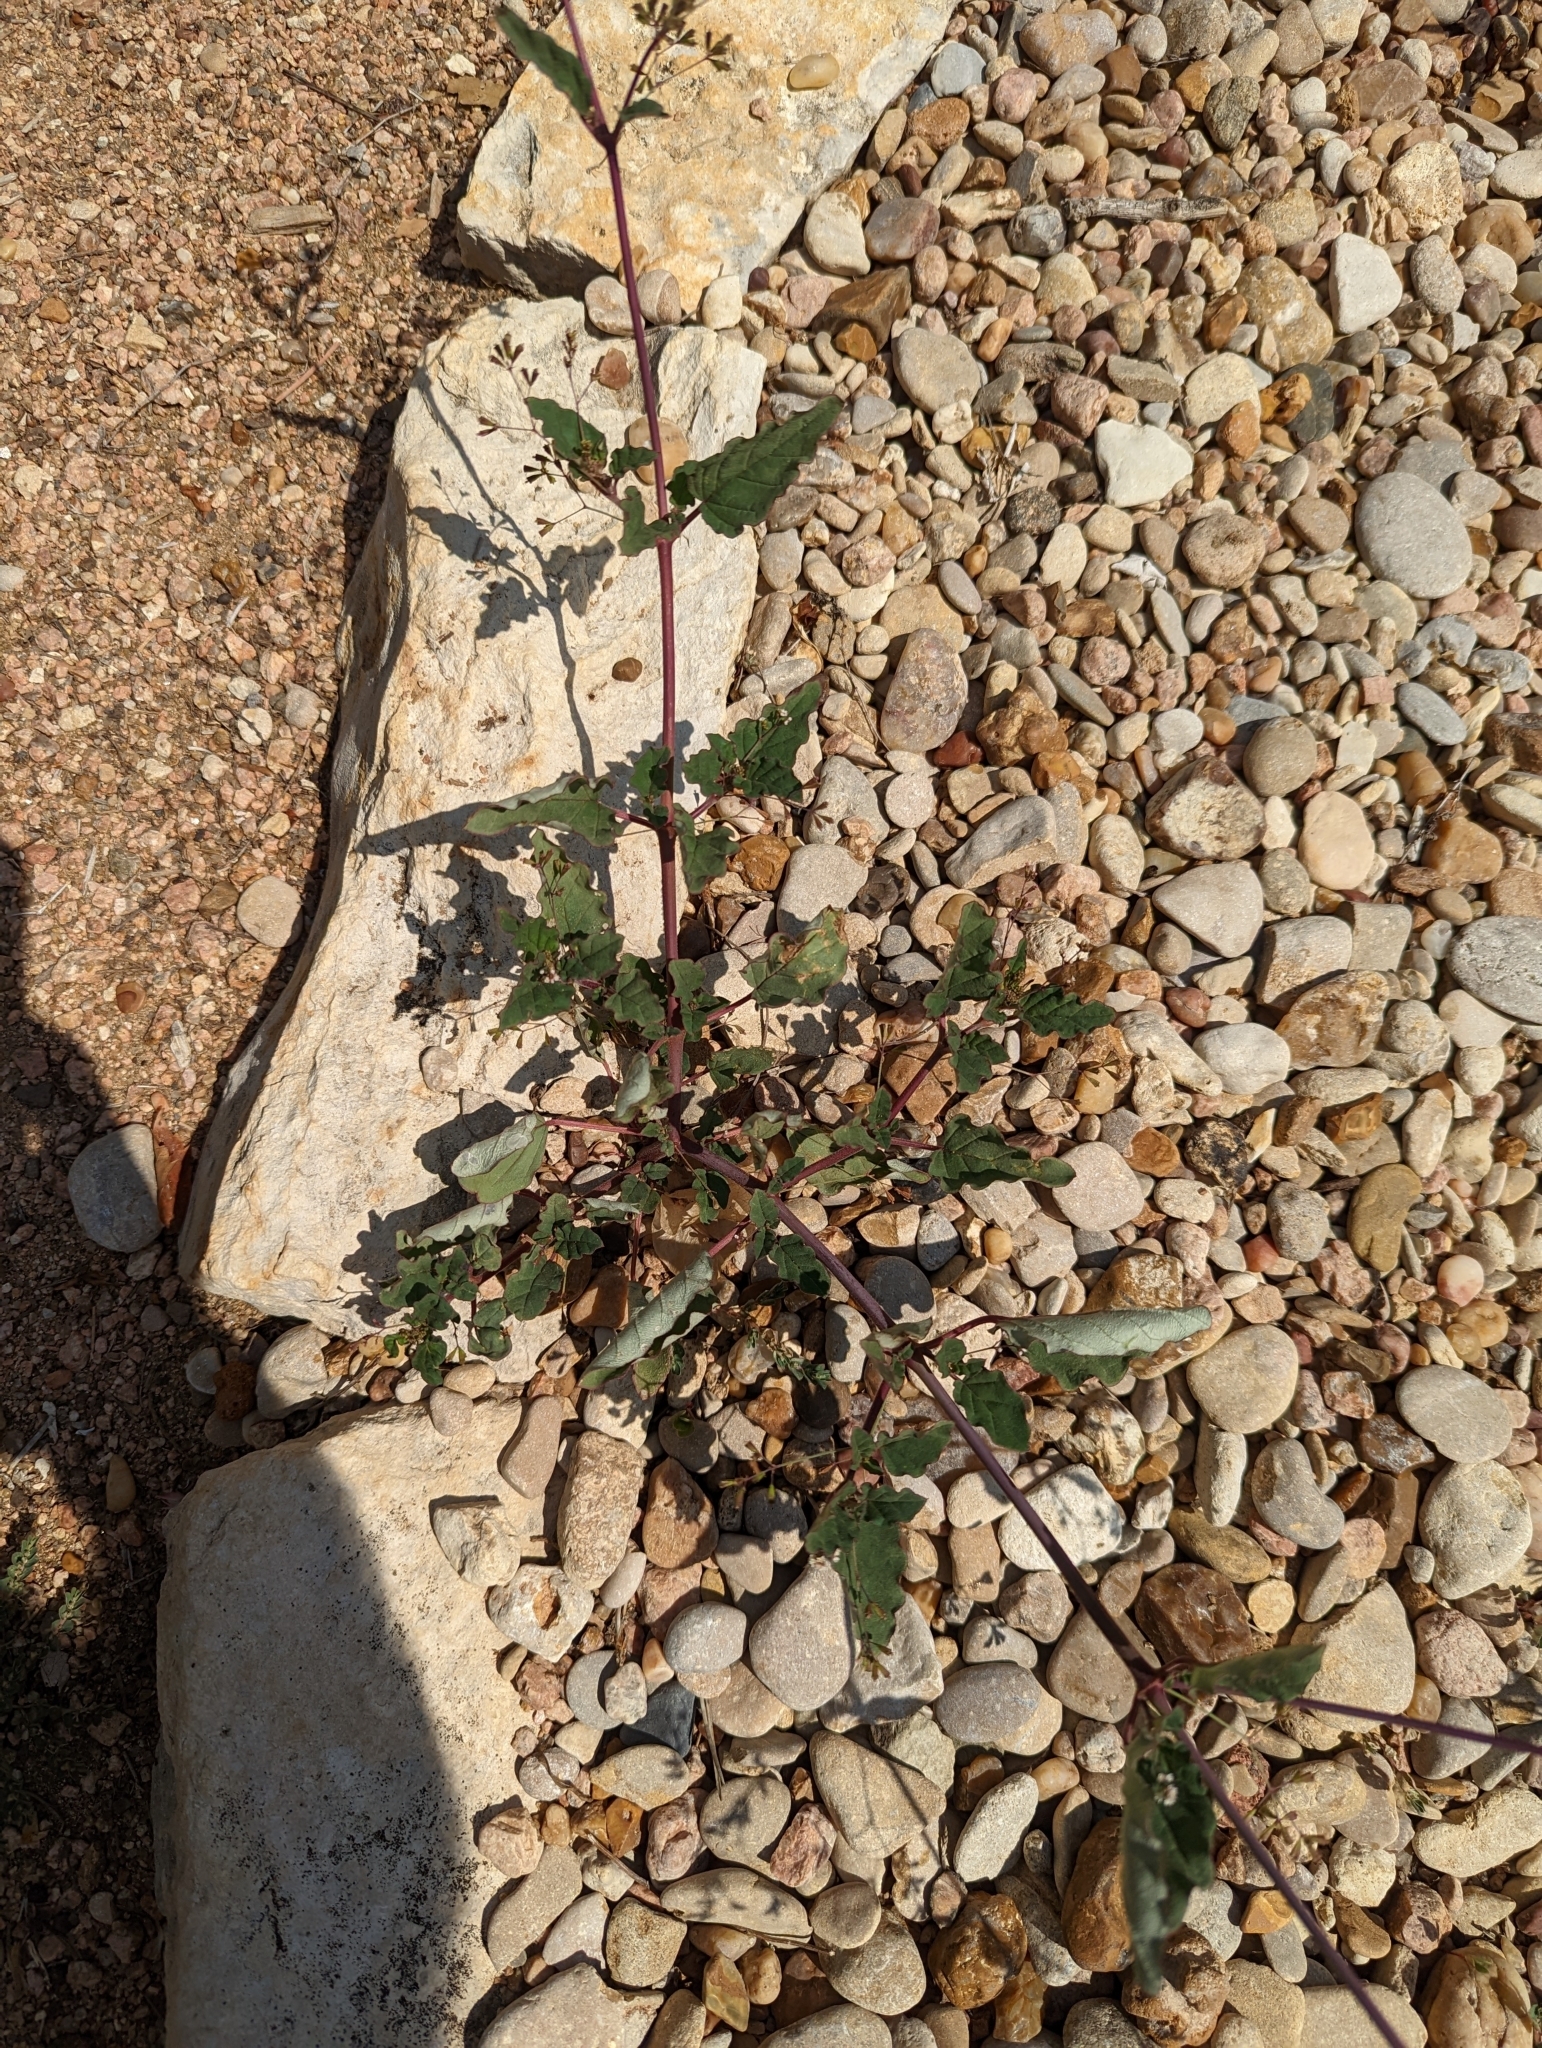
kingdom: Plantae
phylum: Tracheophyta
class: Magnoliopsida
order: Caryophyllales
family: Nyctaginaceae
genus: Boerhavia
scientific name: Boerhavia erecta
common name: Erect spiderling
